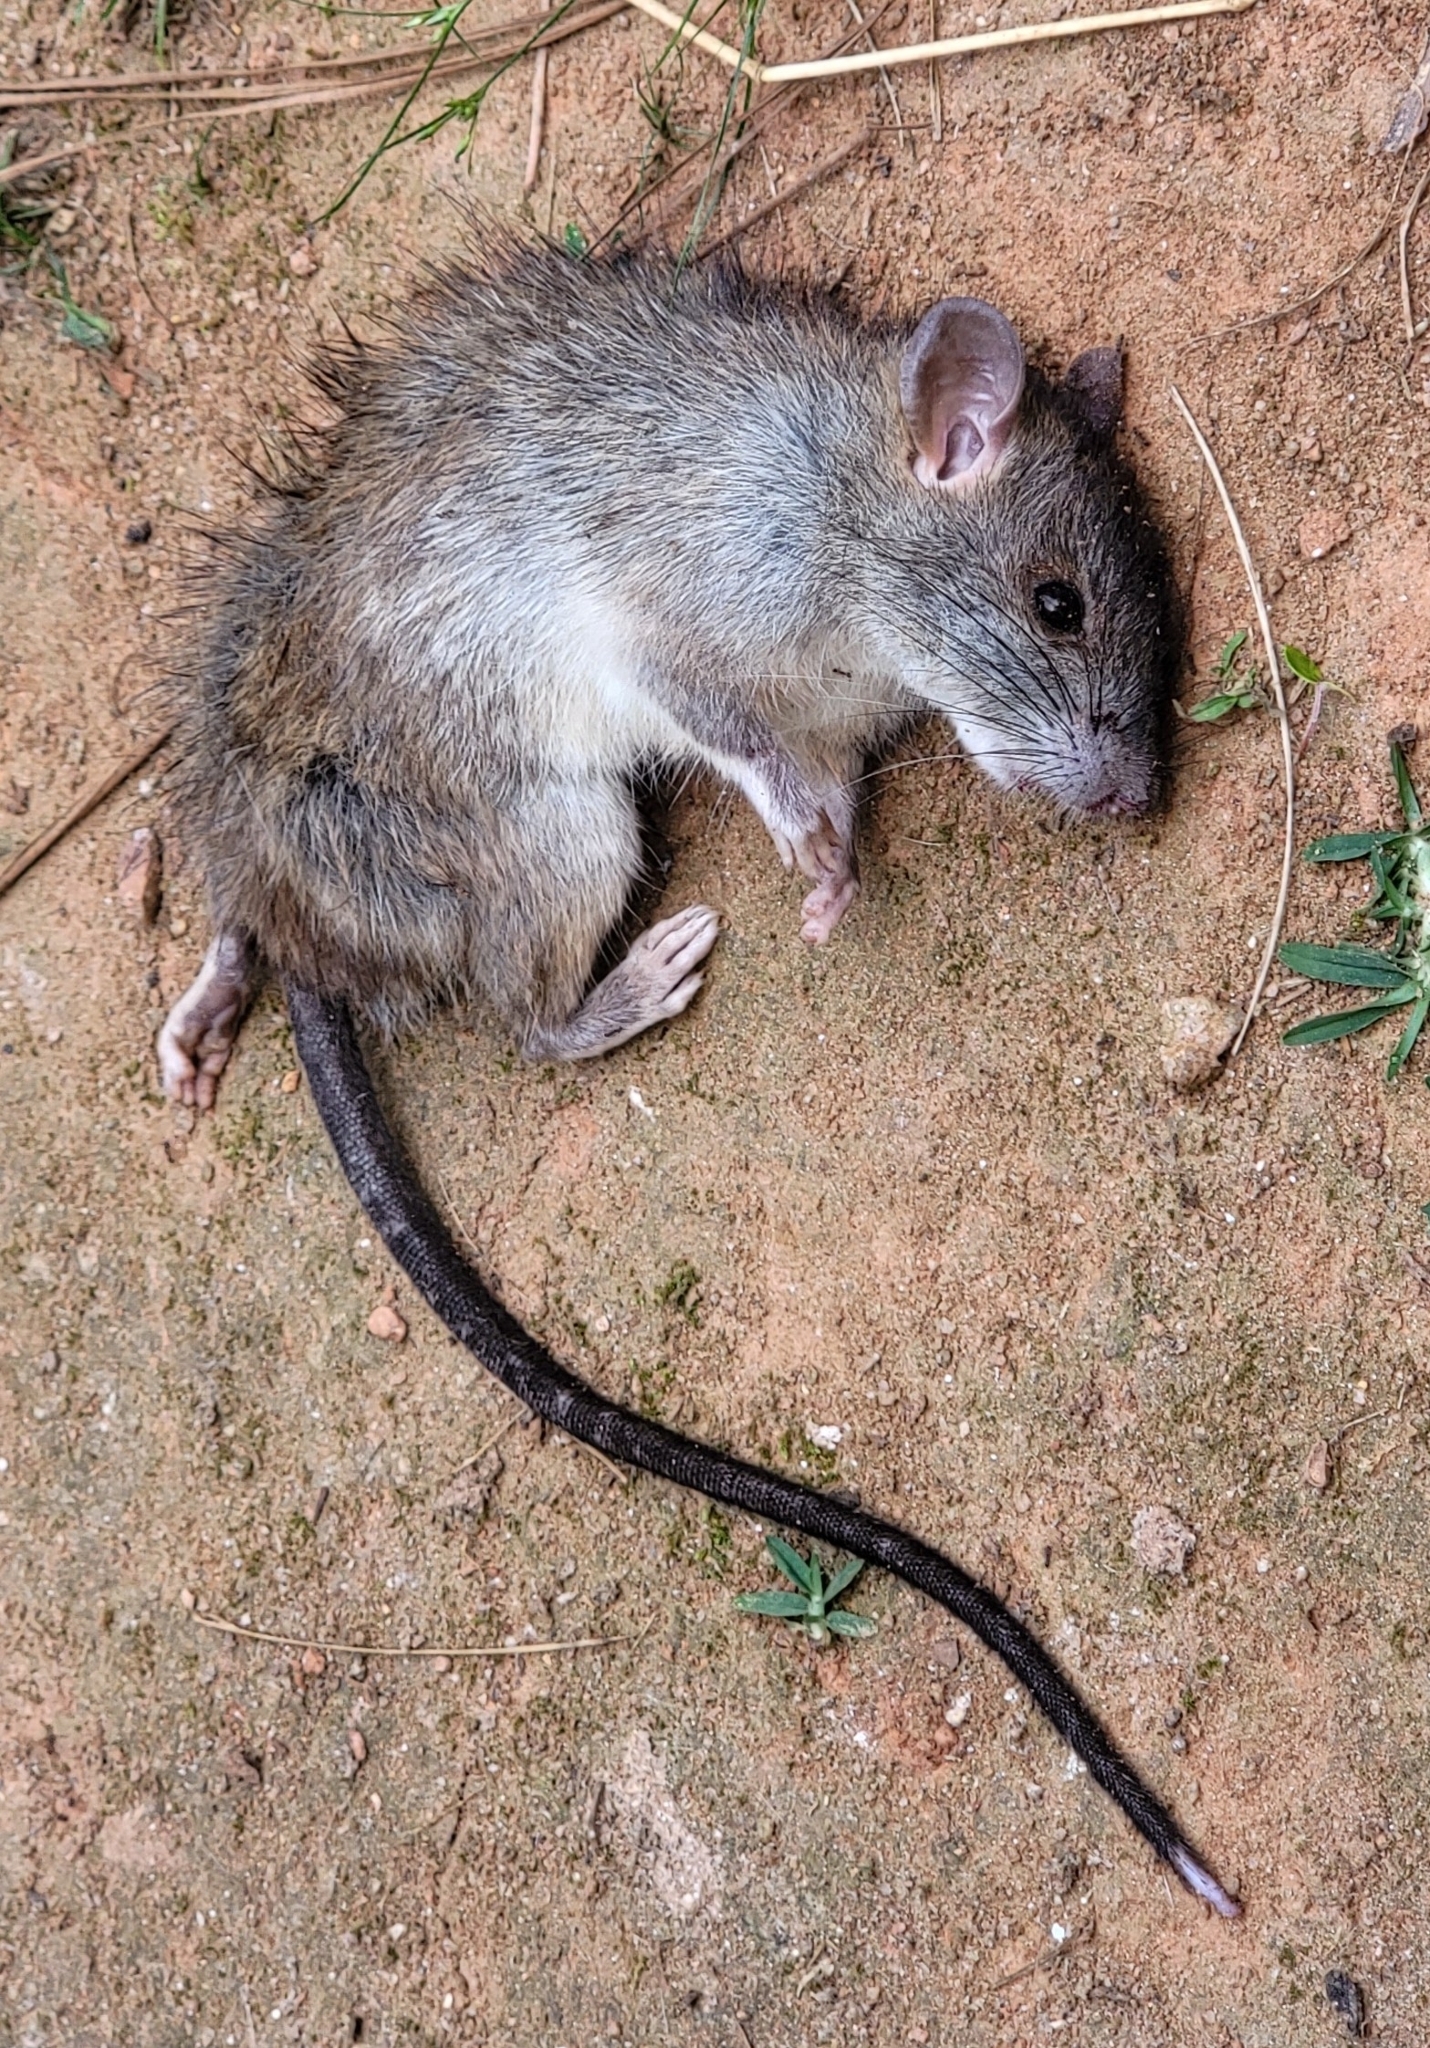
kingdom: Animalia
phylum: Chordata
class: Mammalia
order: Rodentia
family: Muridae
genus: Rattus
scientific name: Rattus rattus
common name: Black rat
